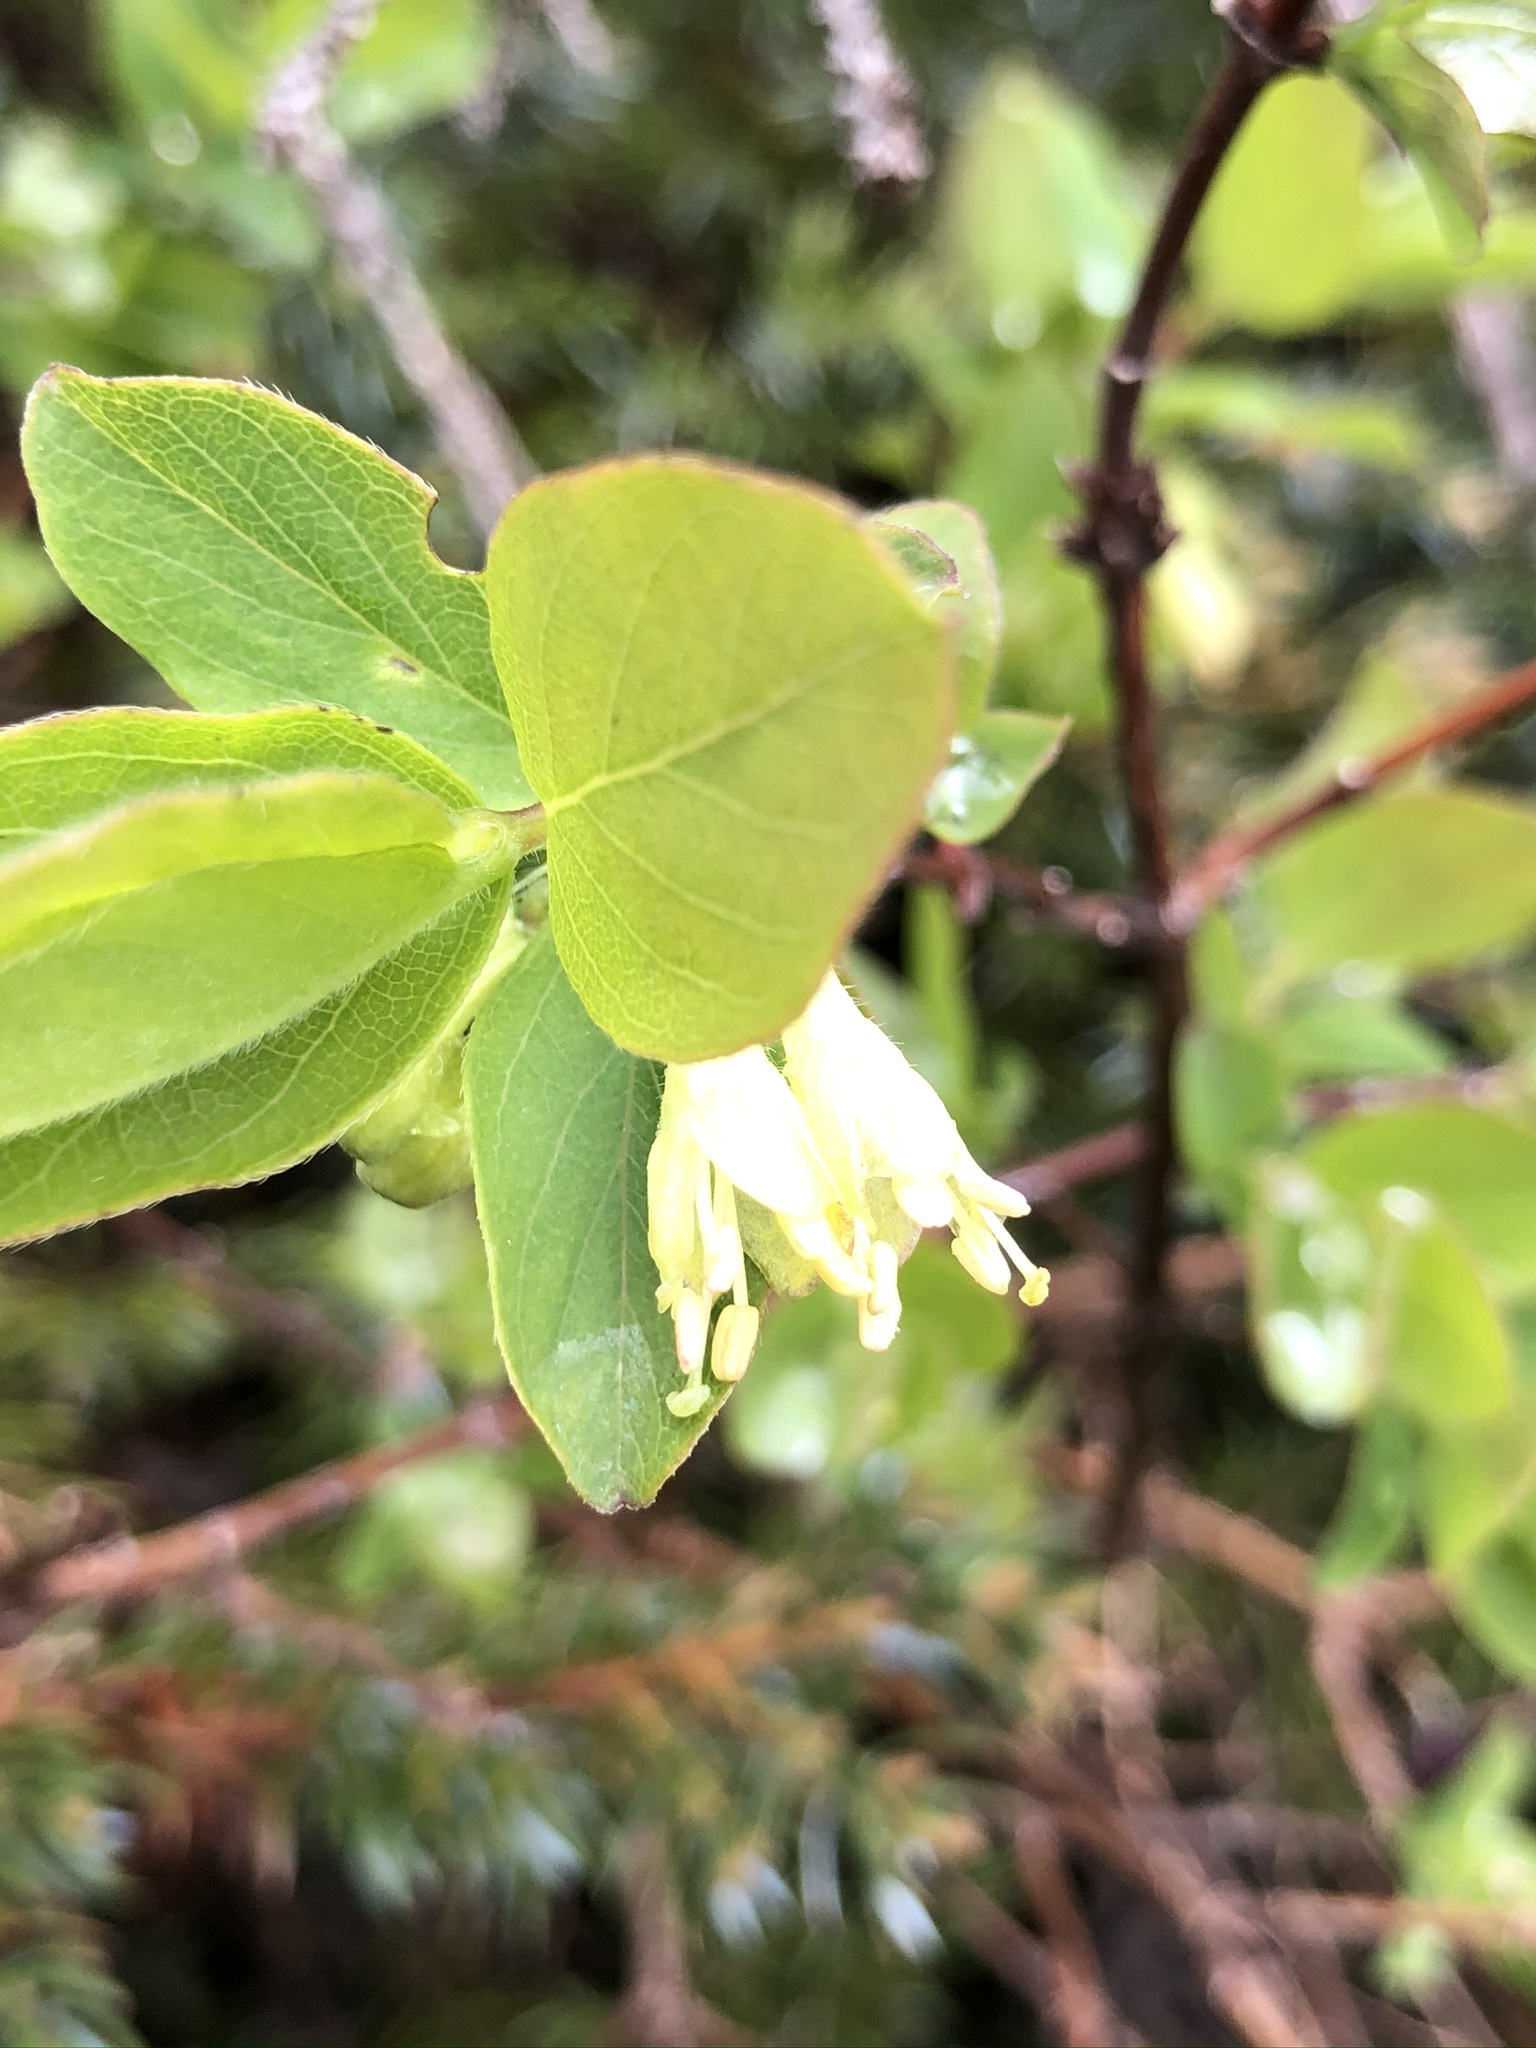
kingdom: Plantae
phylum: Tracheophyta
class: Magnoliopsida
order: Dipsacales
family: Caprifoliaceae
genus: Lonicera
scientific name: Lonicera caerulea
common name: Blue honeysuckle
